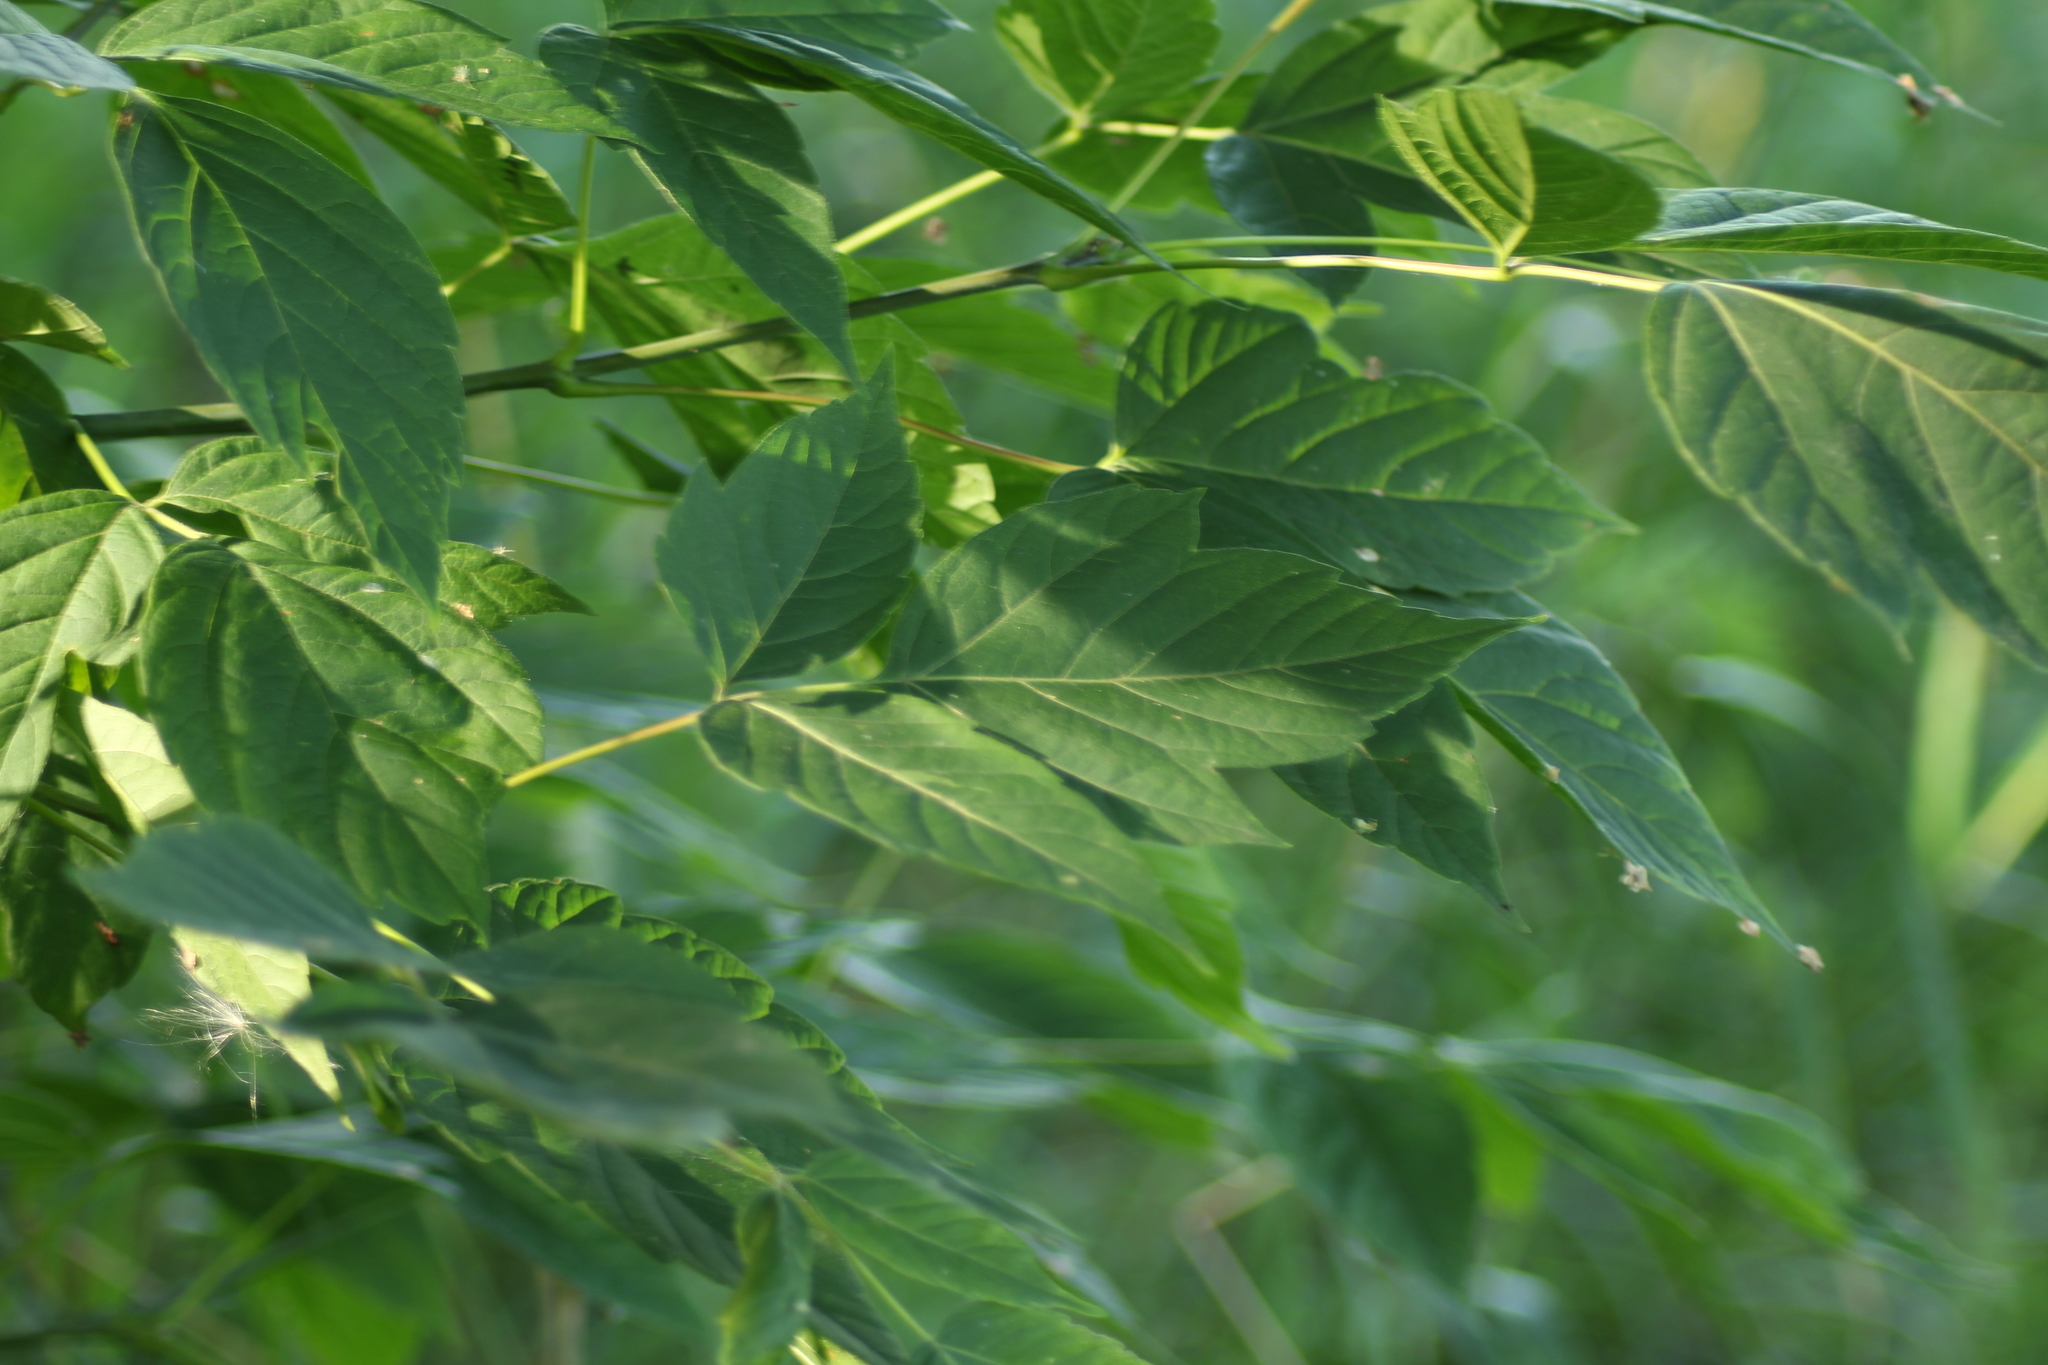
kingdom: Plantae
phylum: Tracheophyta
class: Magnoliopsida
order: Sapindales
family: Sapindaceae
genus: Acer
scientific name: Acer negundo
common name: Ashleaf maple
